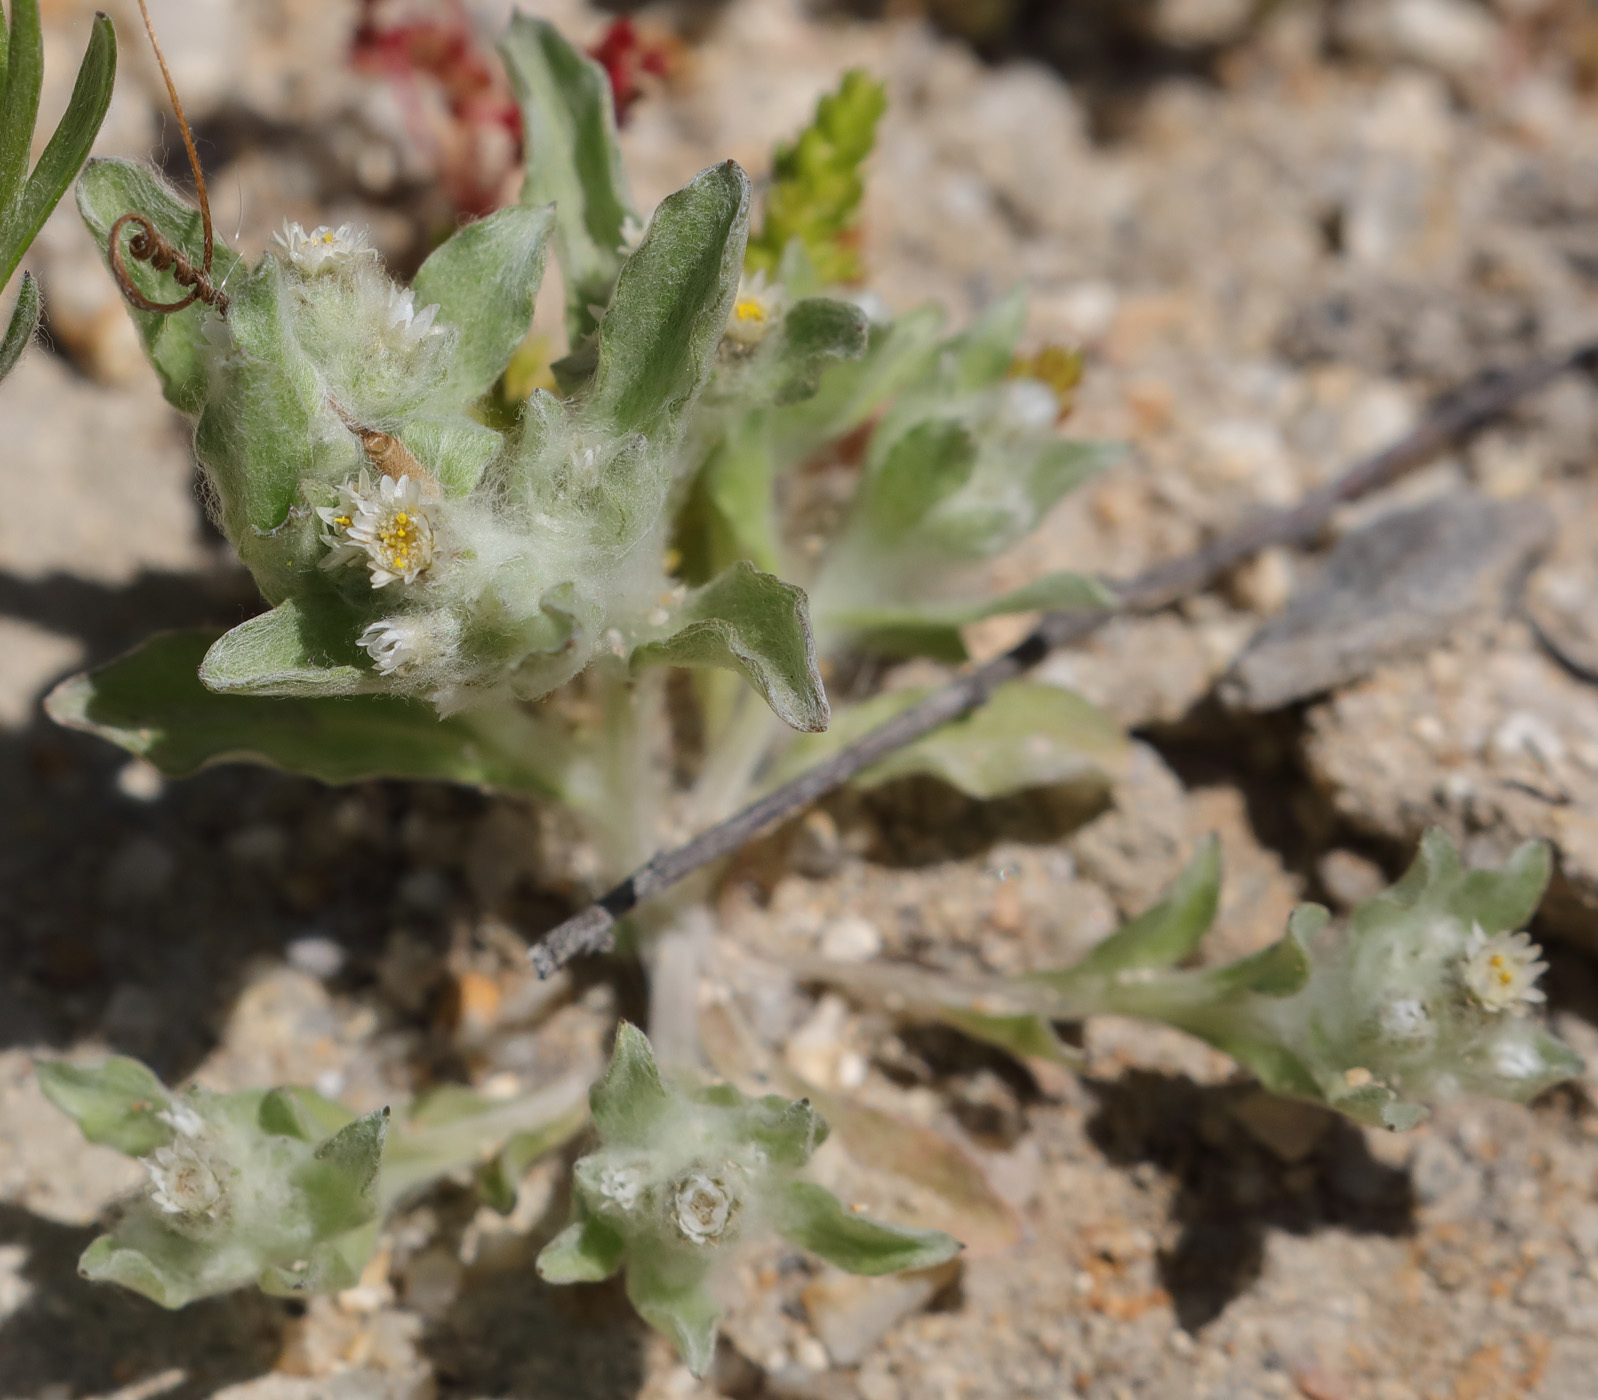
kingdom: Plantae
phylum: Tracheophyta
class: Magnoliopsida
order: Asterales
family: Asteraceae
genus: Gnaphalium
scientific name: Gnaphalium palustre
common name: Western marsh cudweed
